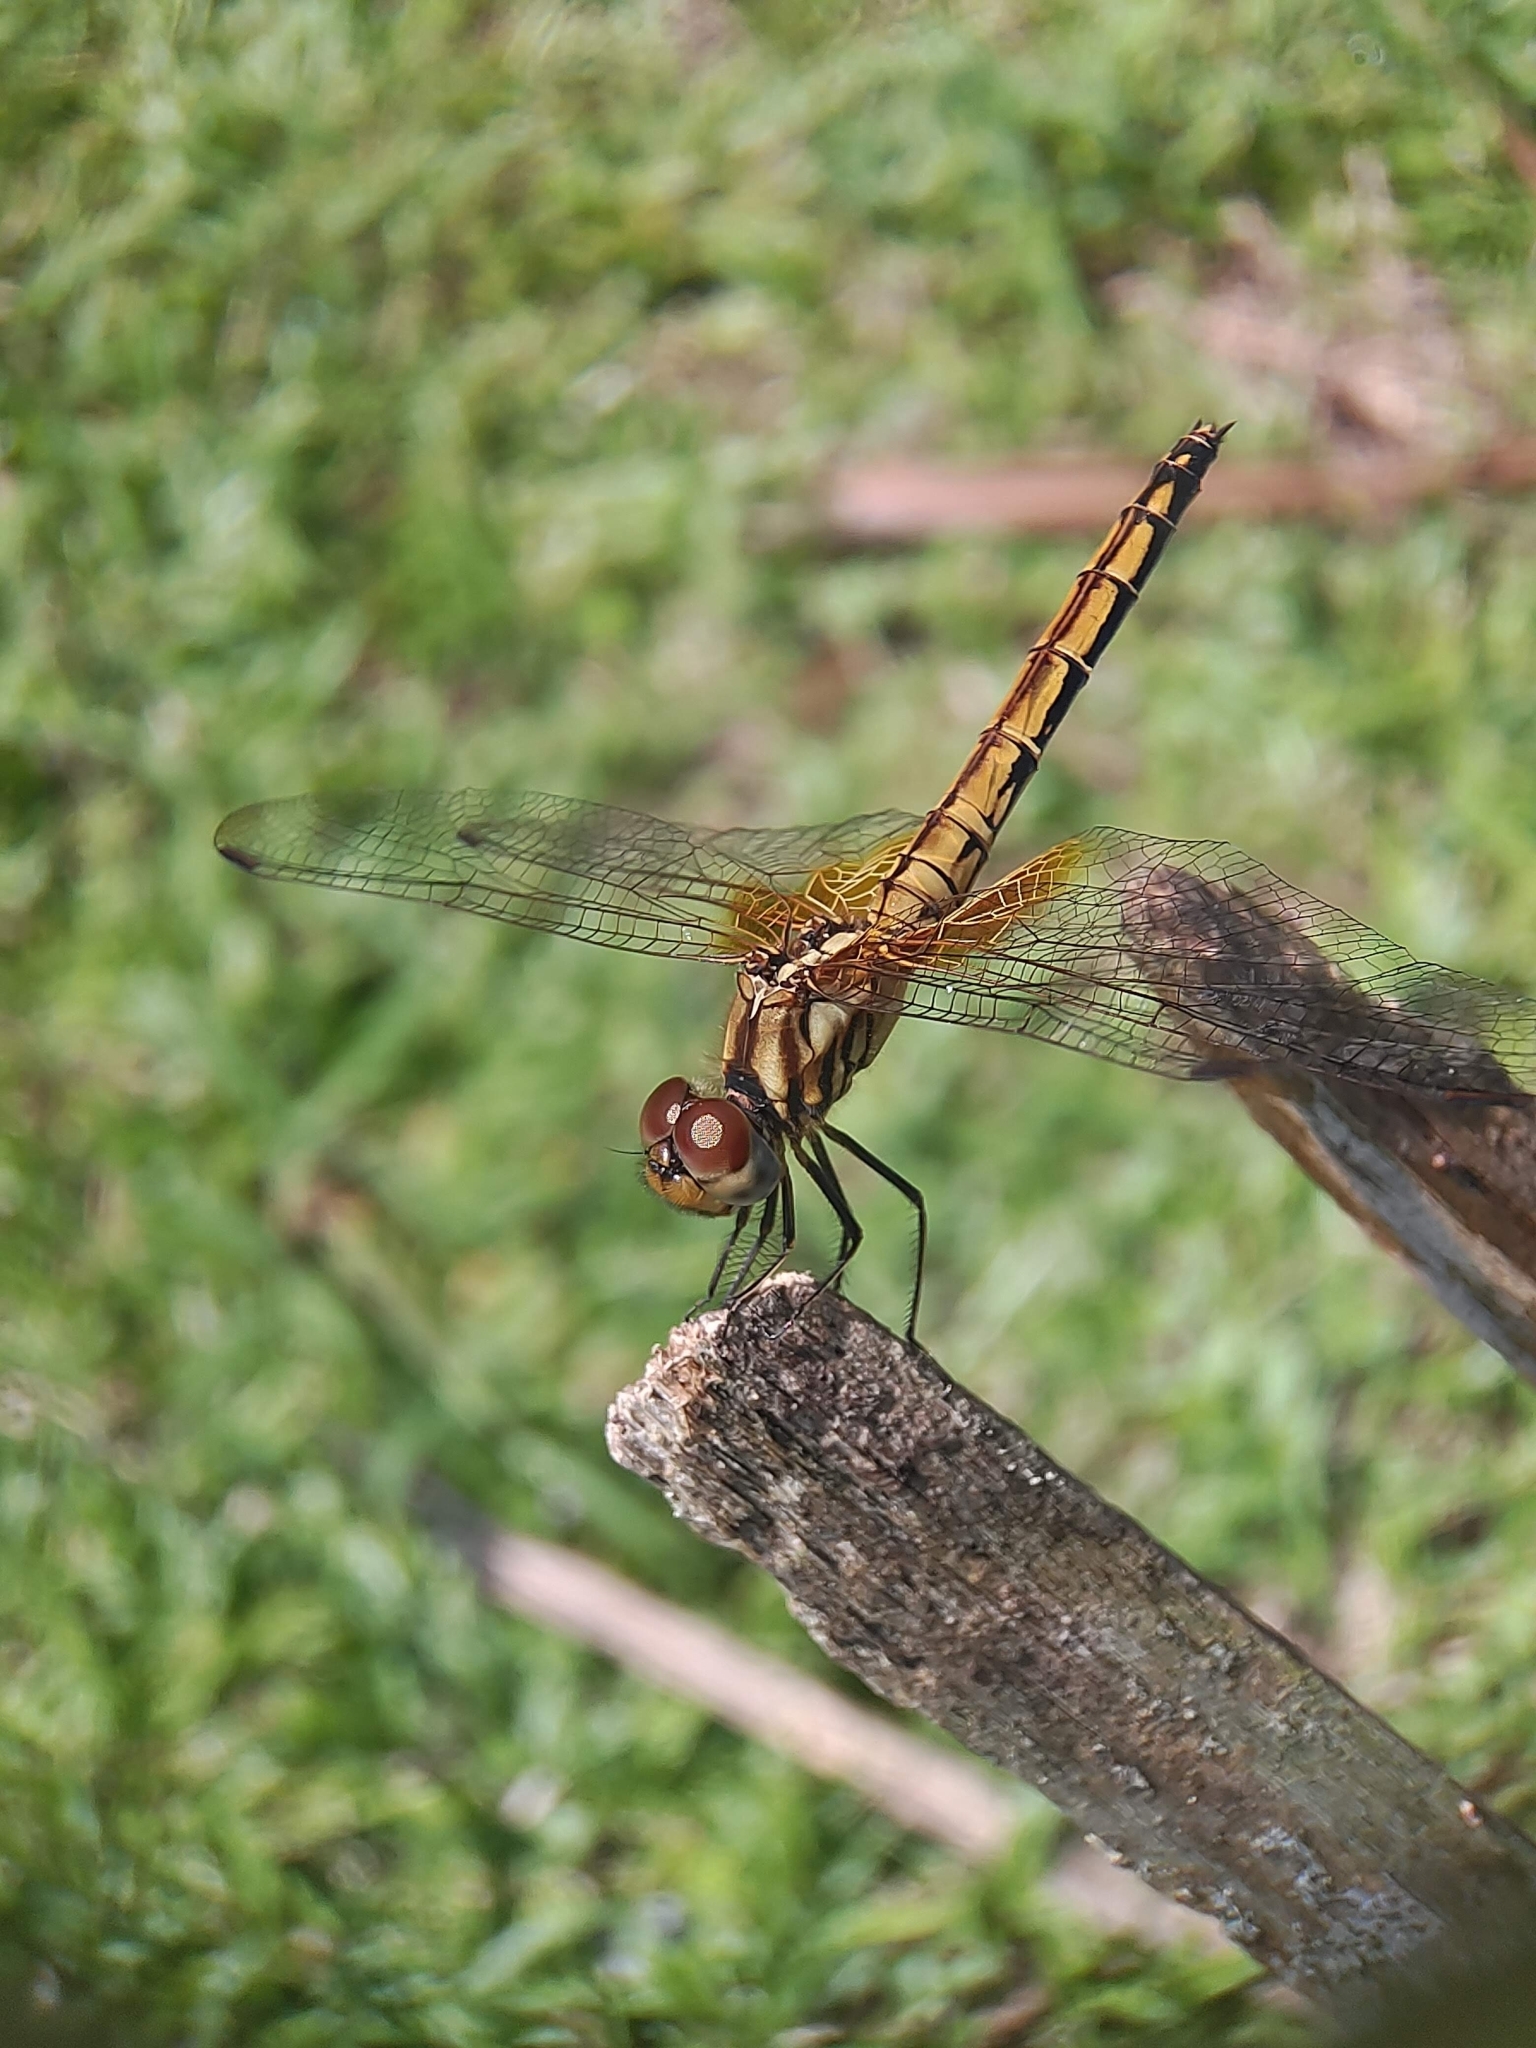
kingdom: Animalia
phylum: Arthropoda
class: Insecta
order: Odonata
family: Libellulidae
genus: Trithemis
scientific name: Trithemis aurora
